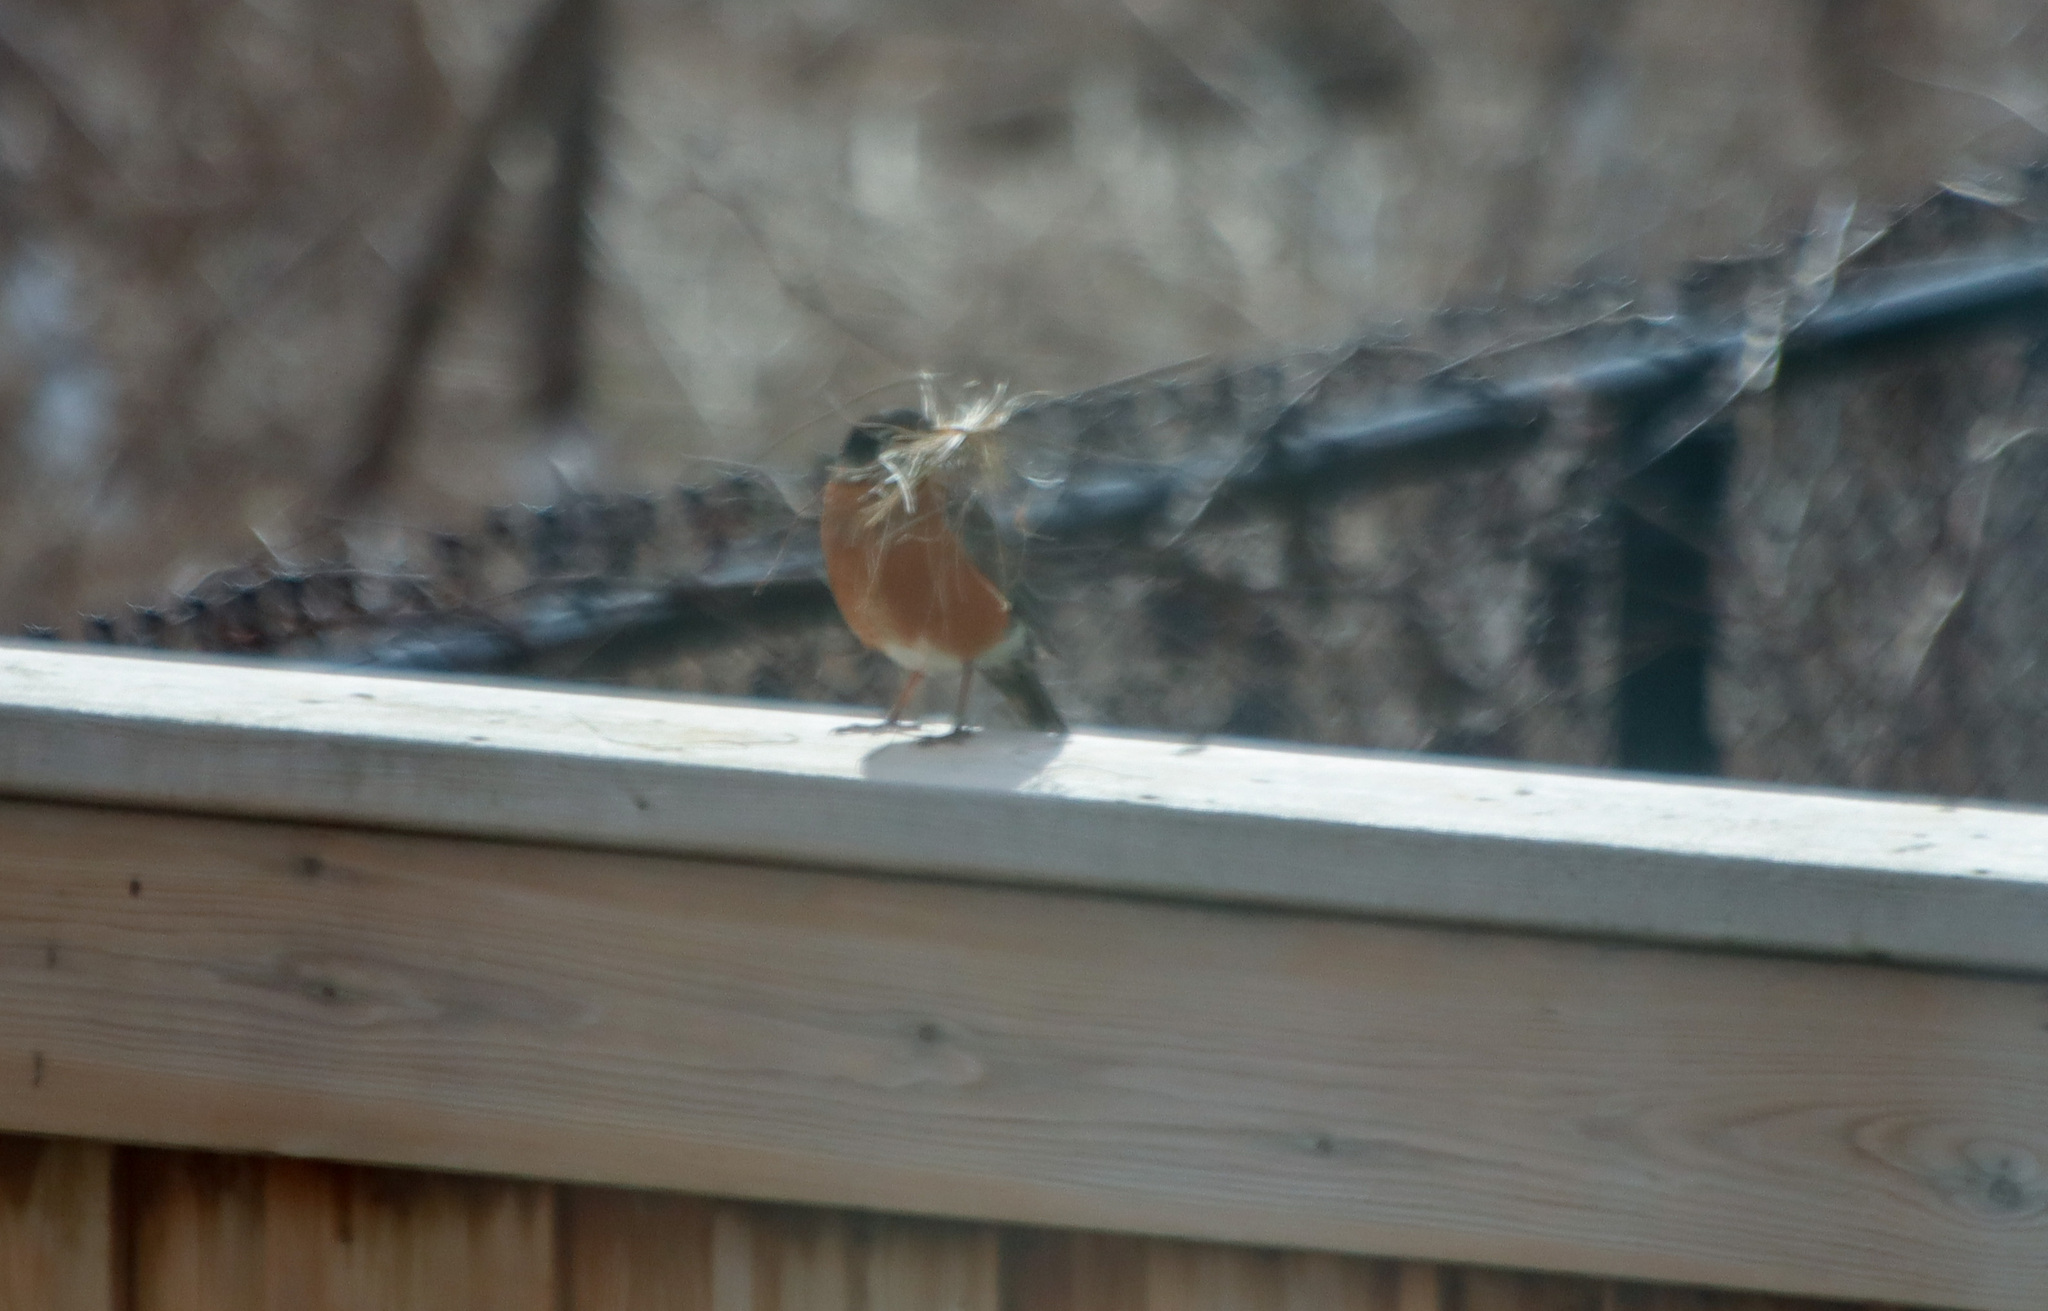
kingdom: Animalia
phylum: Chordata
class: Aves
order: Passeriformes
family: Turdidae
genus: Turdus
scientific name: Turdus migratorius
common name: American robin
